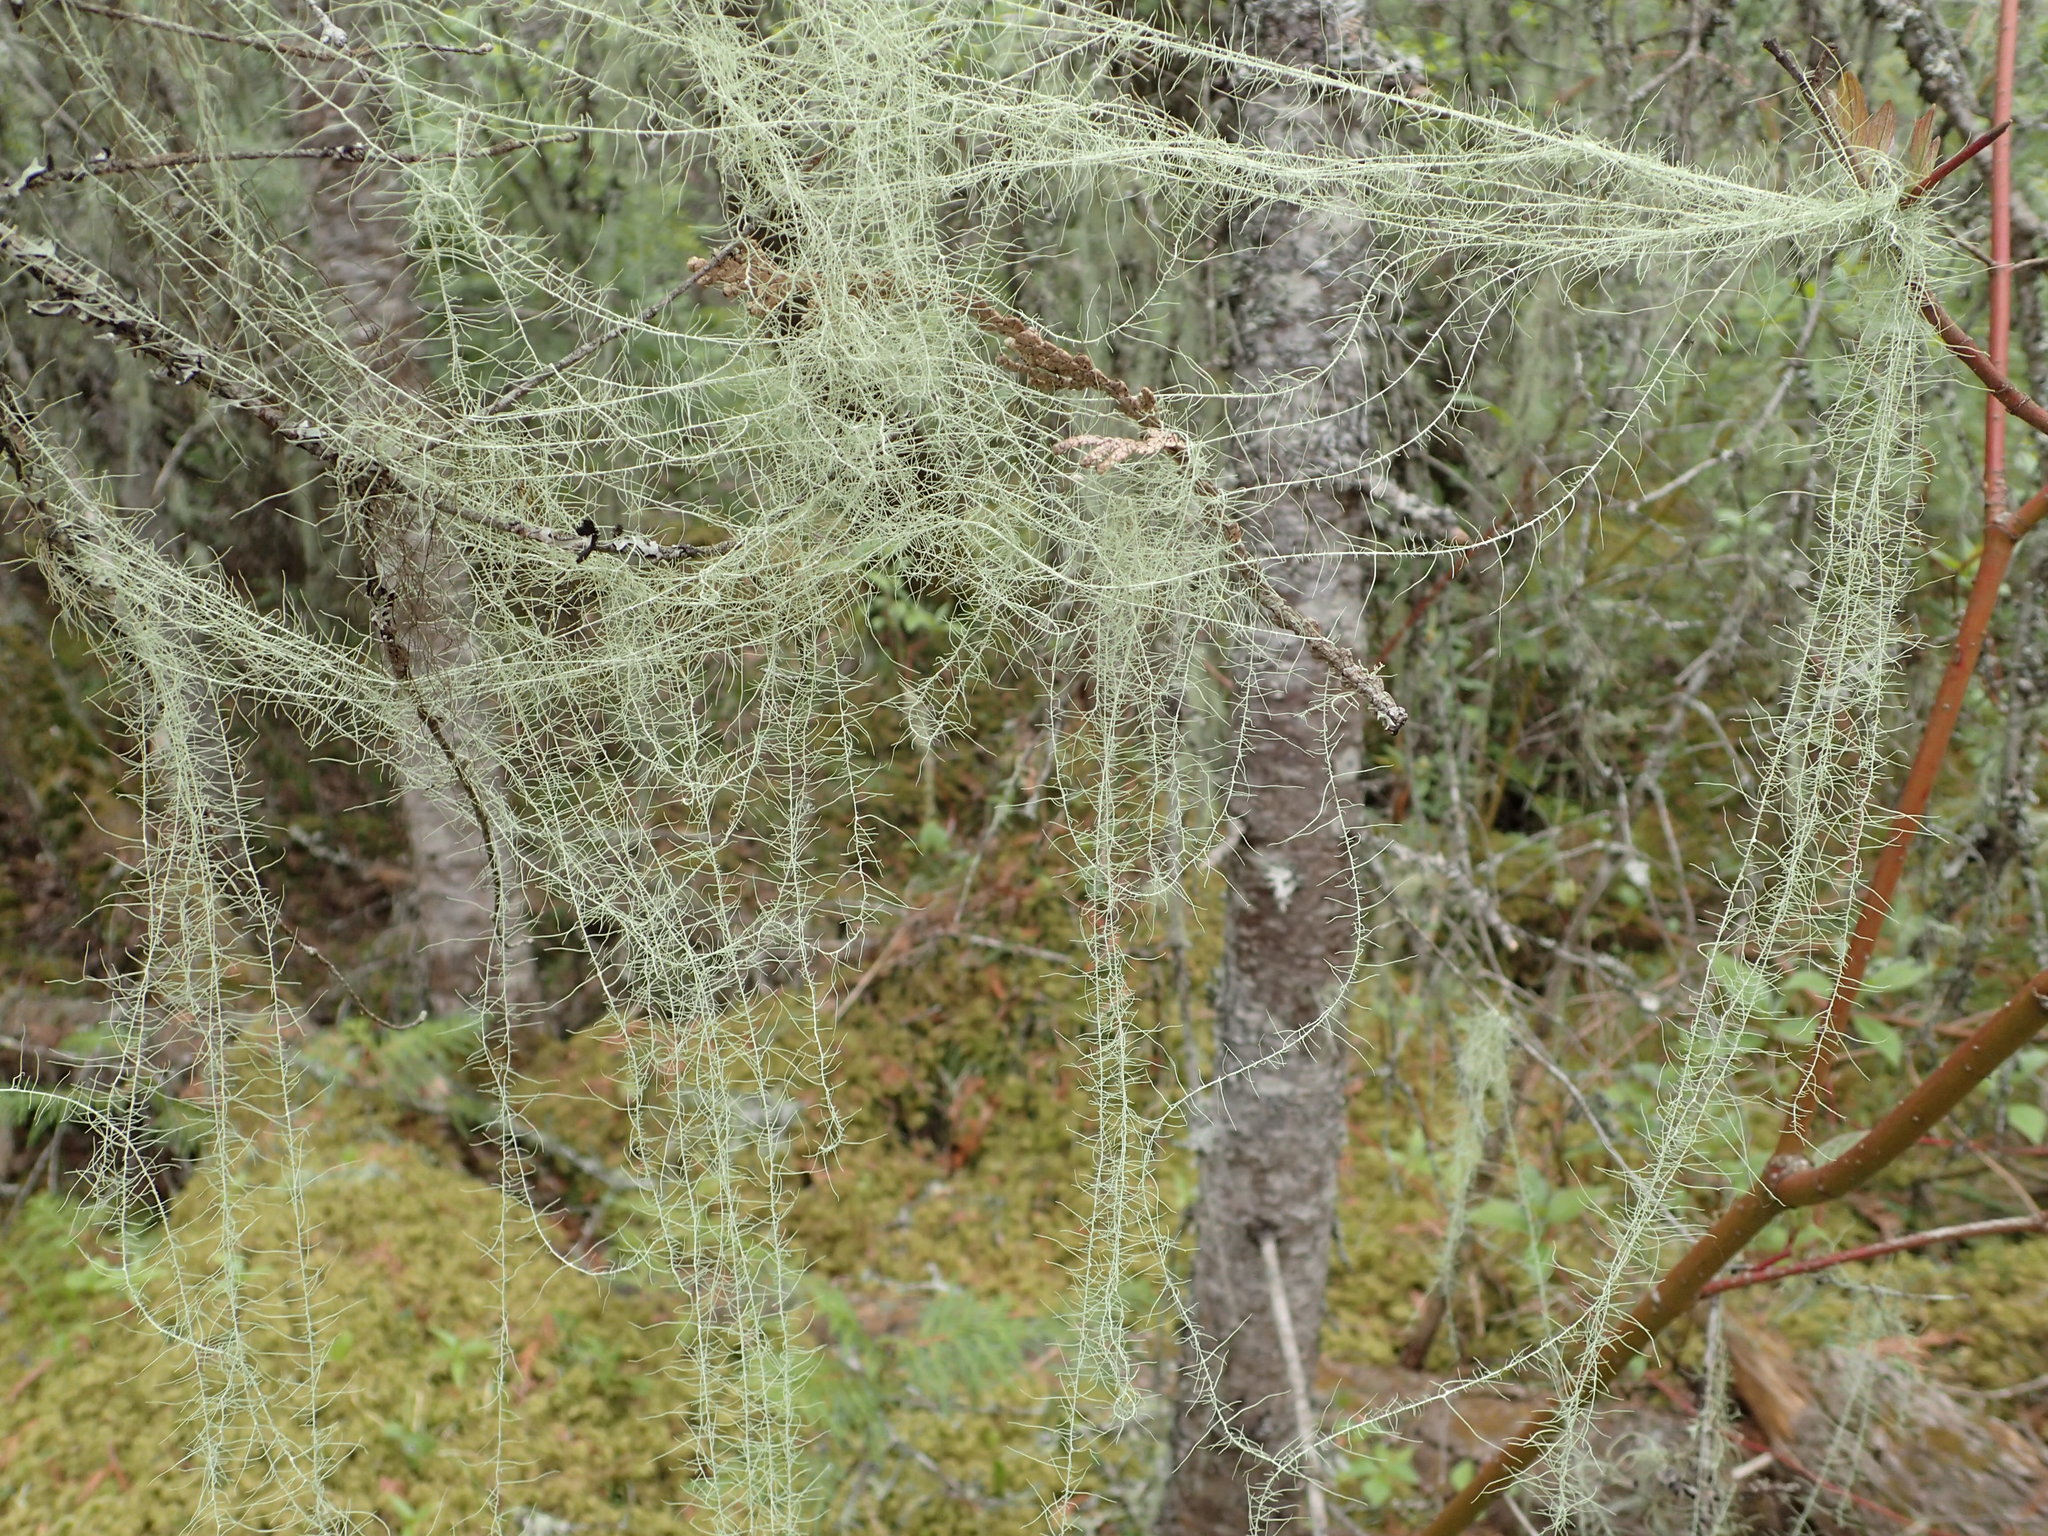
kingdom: Fungi
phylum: Ascomycota
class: Lecanoromycetes
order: Lecanorales
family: Parmeliaceae
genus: Dolichousnea
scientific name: Dolichousnea longissima
